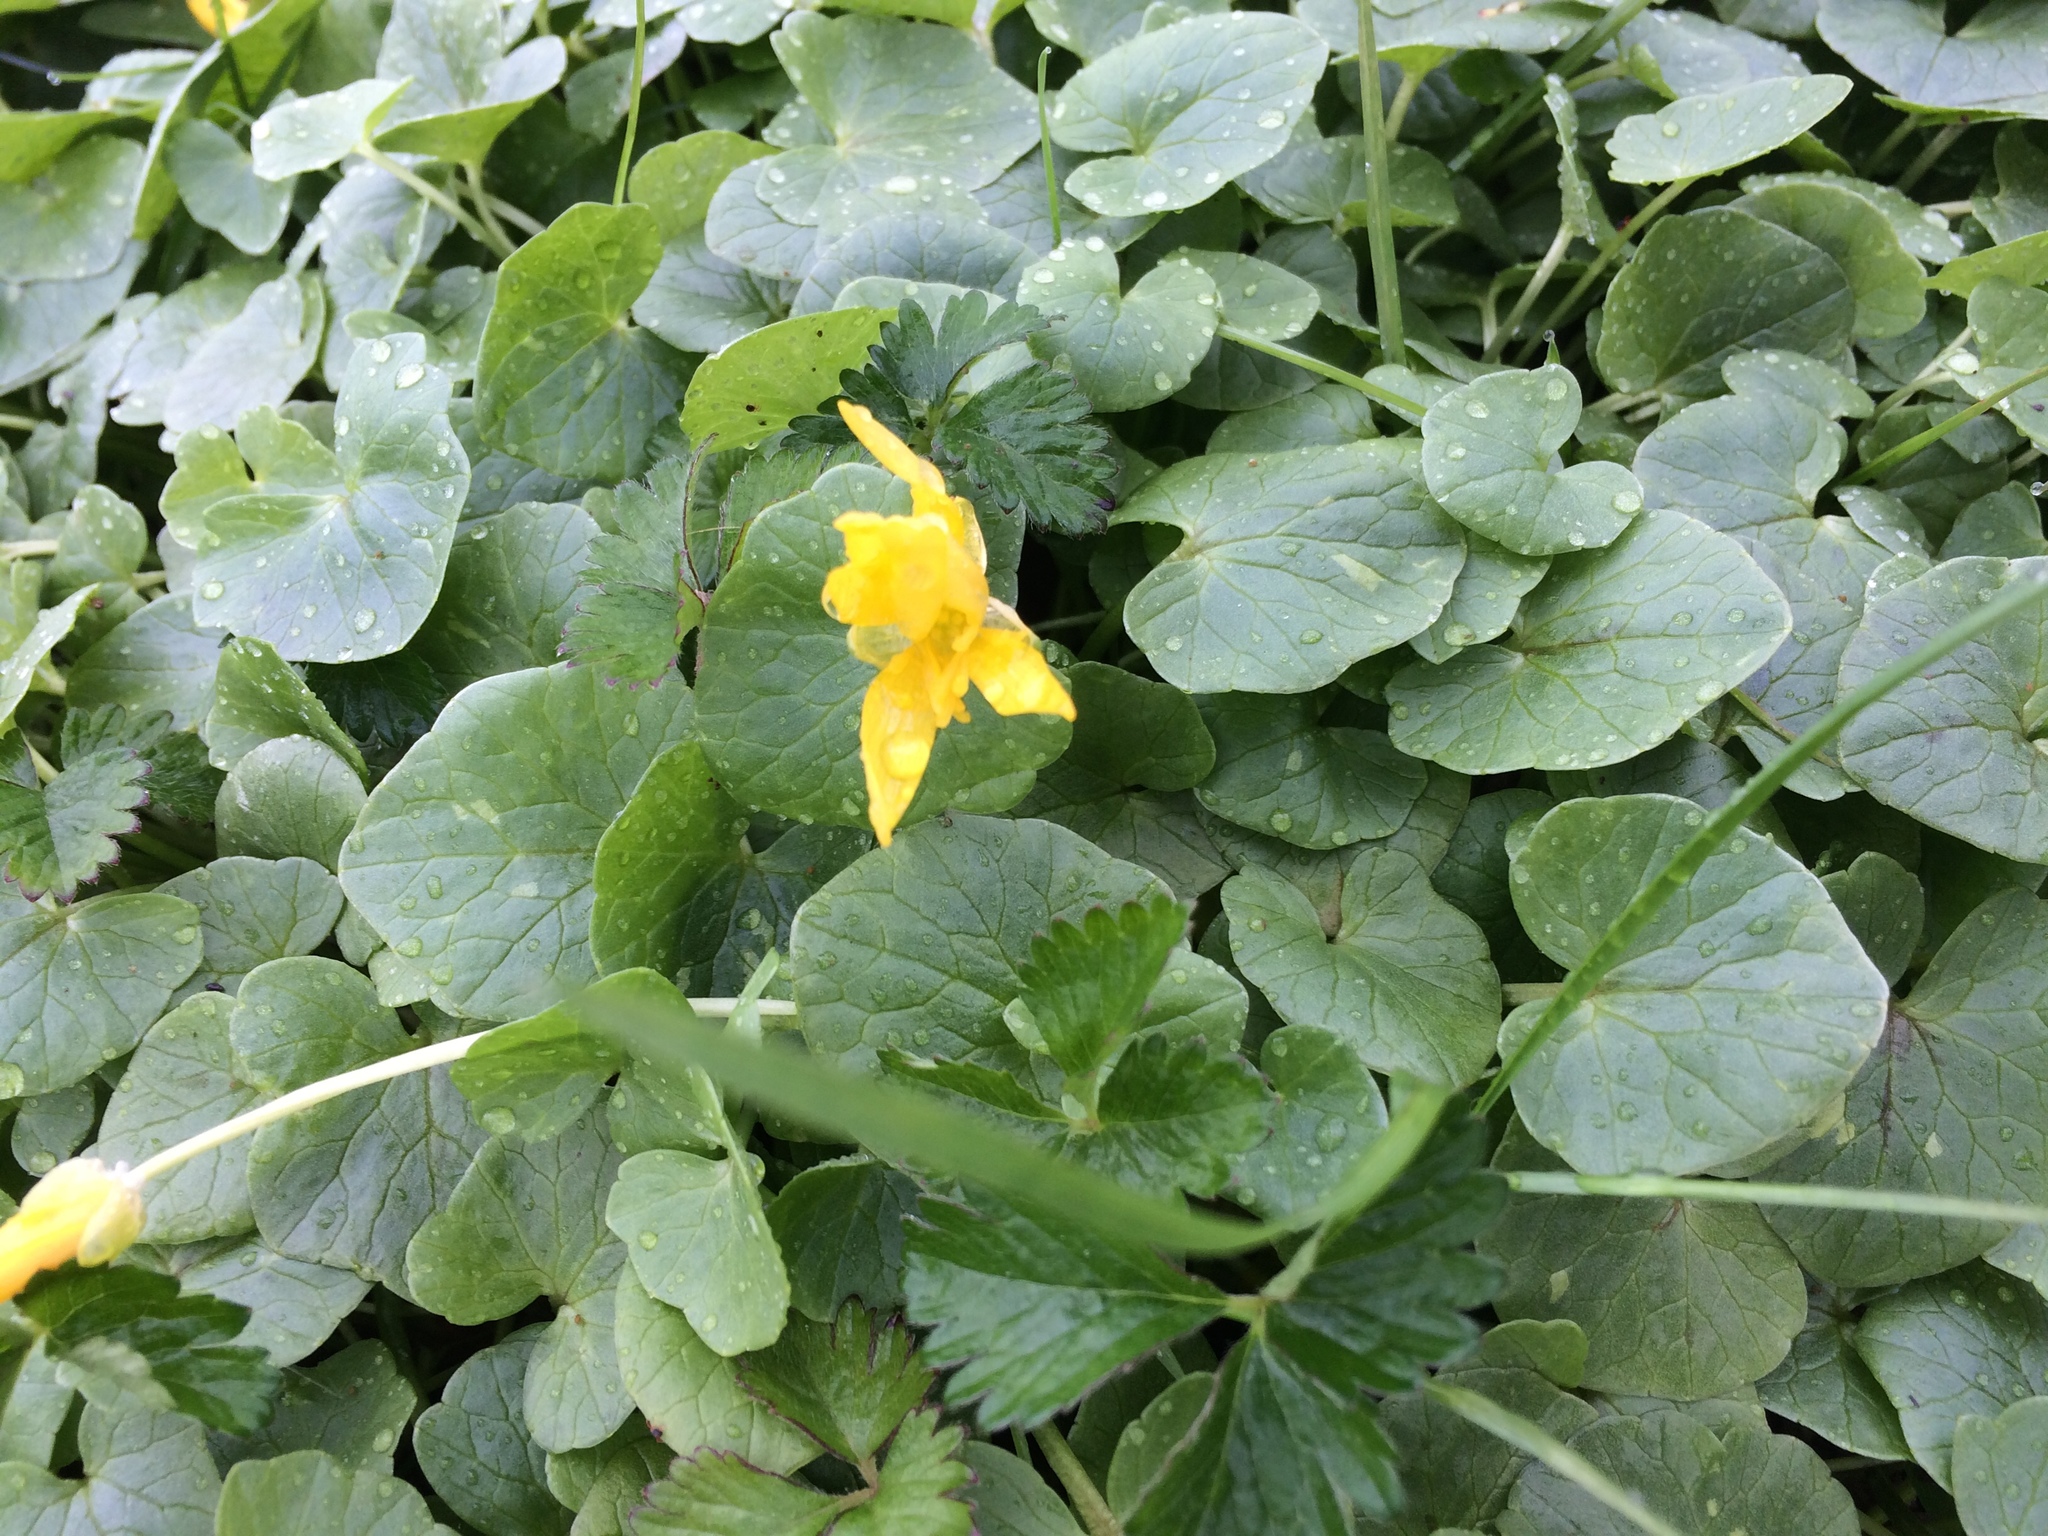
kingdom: Plantae
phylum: Tracheophyta
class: Magnoliopsida
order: Ranunculales
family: Ranunculaceae
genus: Ficaria
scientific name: Ficaria verna
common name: Lesser celandine
